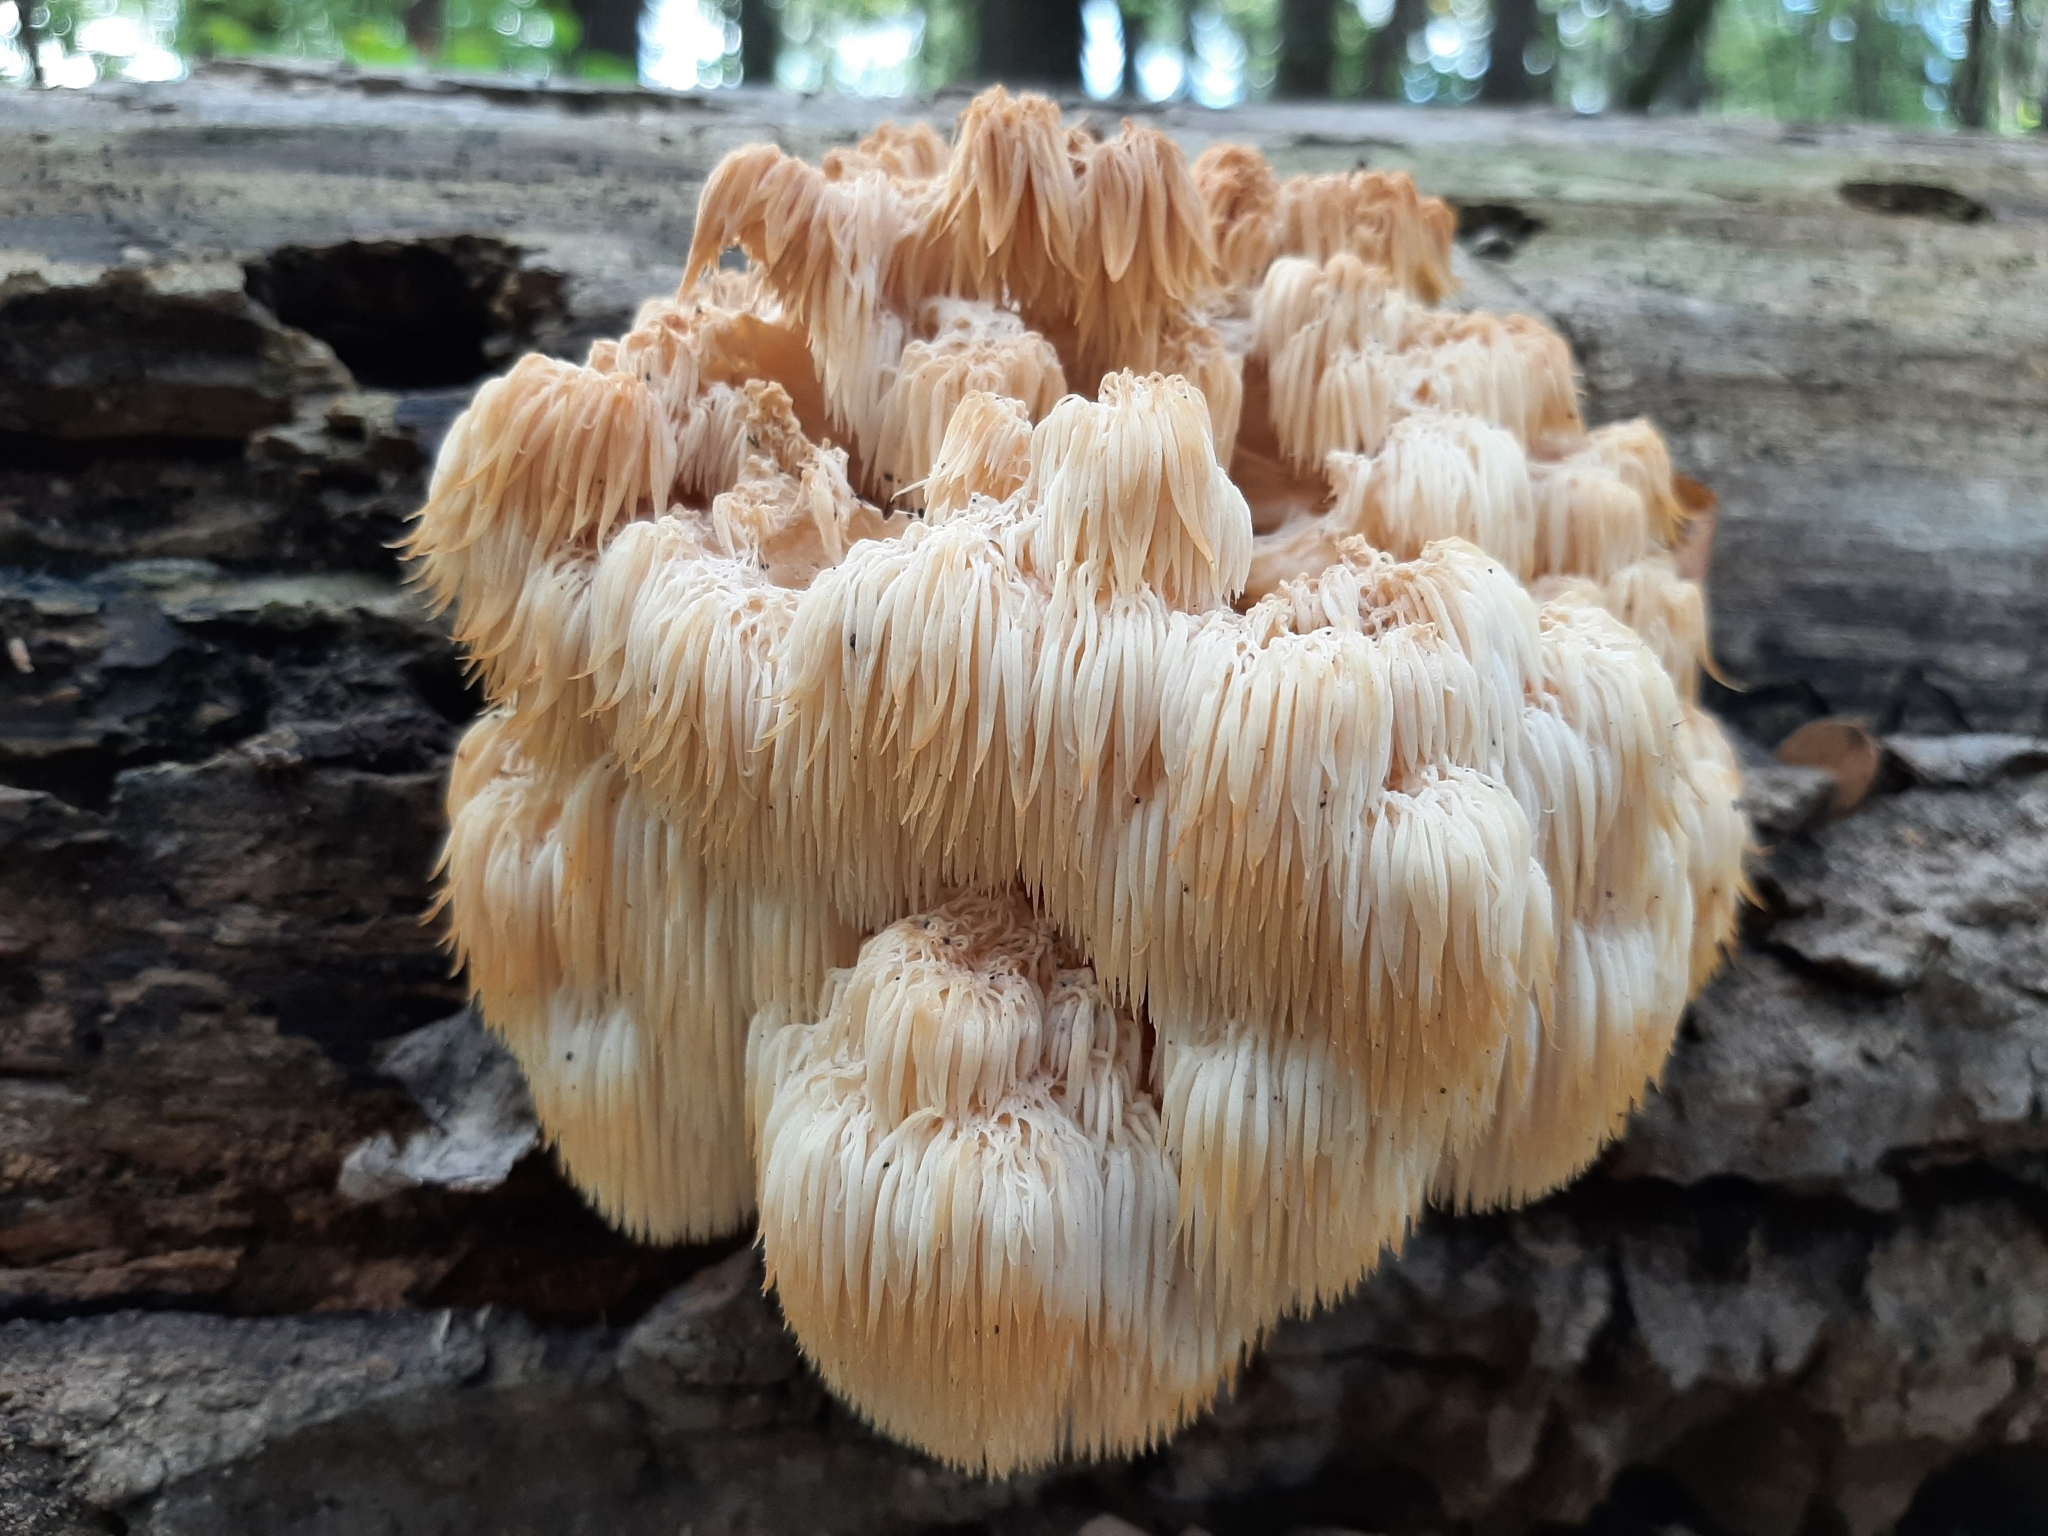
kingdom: Fungi
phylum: Basidiomycota
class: Agaricomycetes
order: Russulales
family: Hericiaceae
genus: Hericium
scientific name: Hericium americanum
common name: Bear's head tooth
